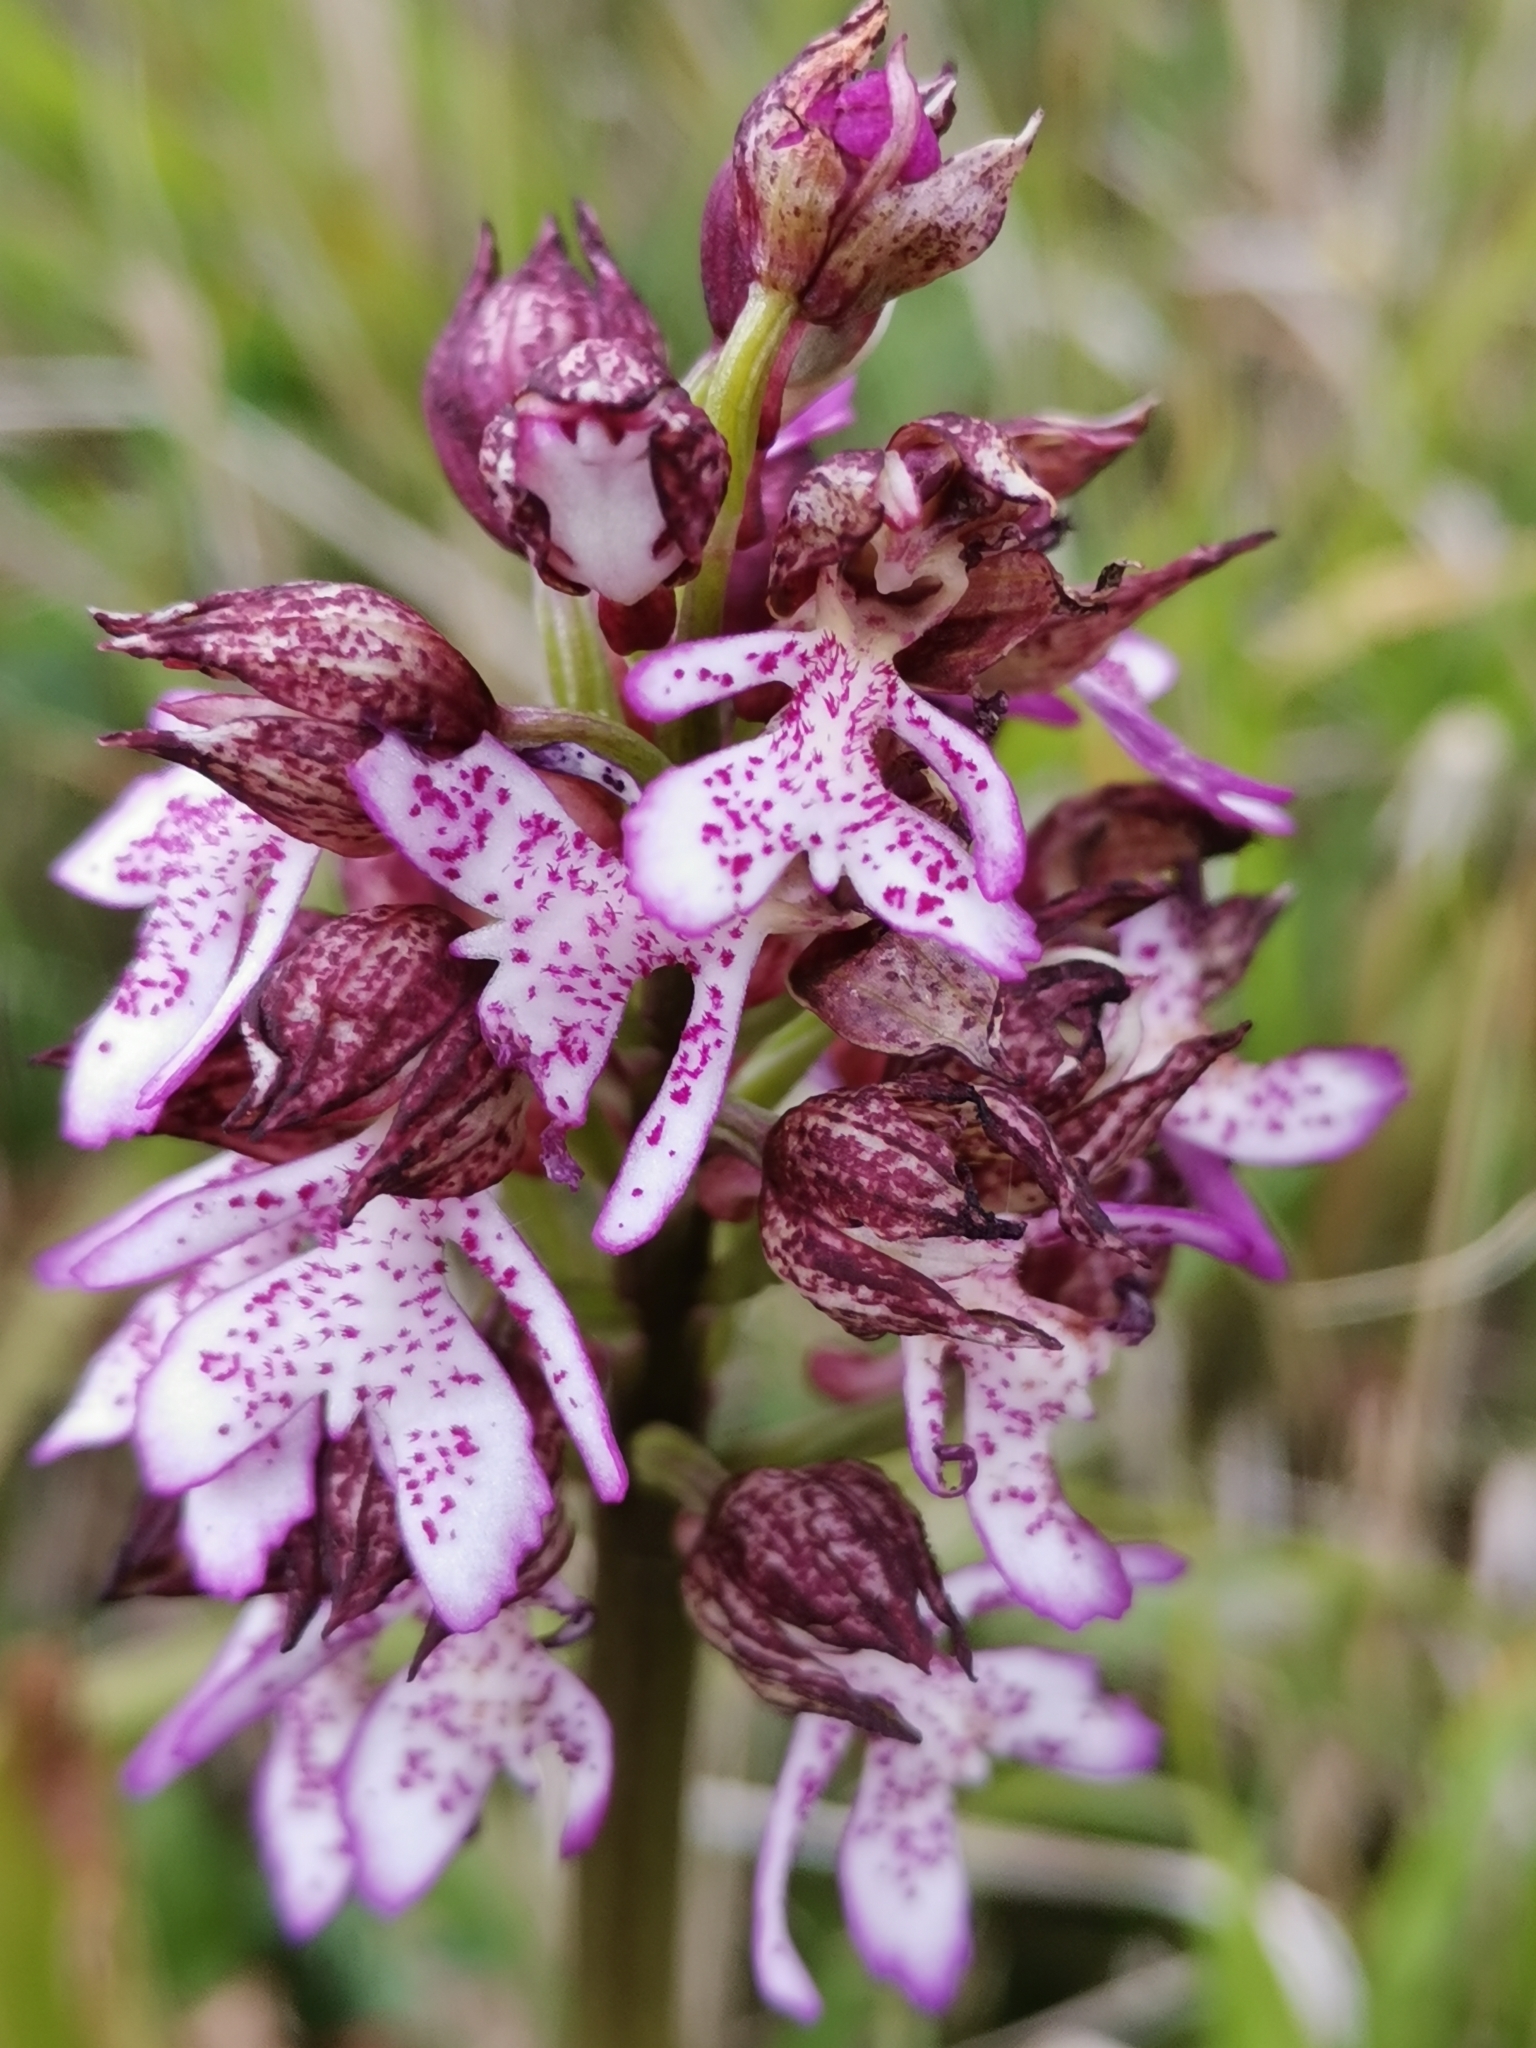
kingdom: Plantae
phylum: Tracheophyta
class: Liliopsida
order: Asparagales
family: Orchidaceae
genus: Orchis
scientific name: Orchis purpurea
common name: Lady orchid
